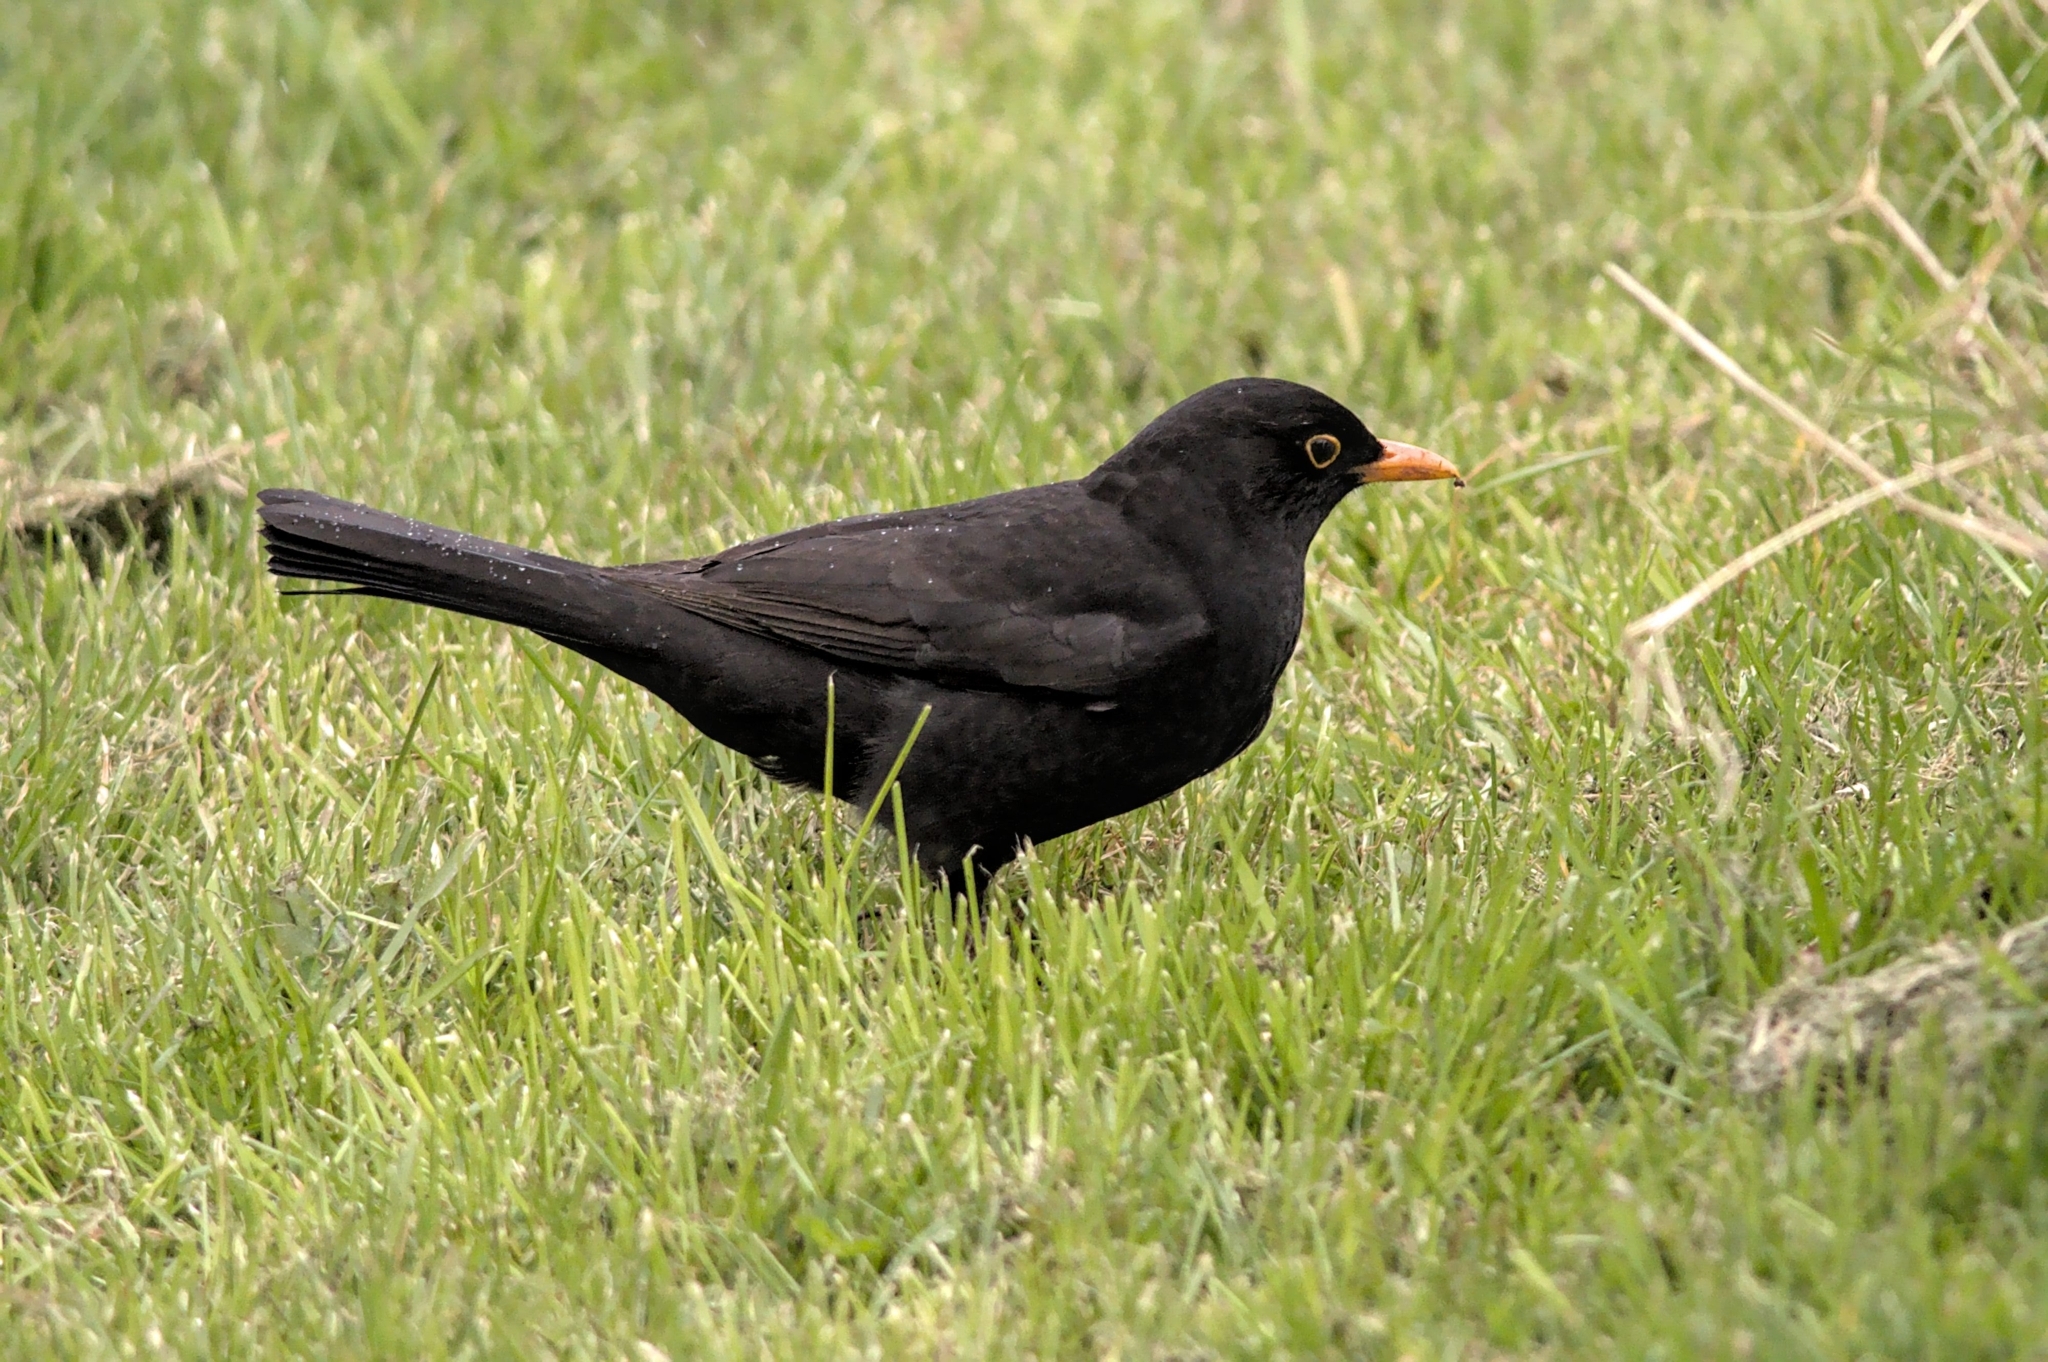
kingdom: Animalia
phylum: Chordata
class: Aves
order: Passeriformes
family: Turdidae
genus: Turdus
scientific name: Turdus merula
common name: Common blackbird
